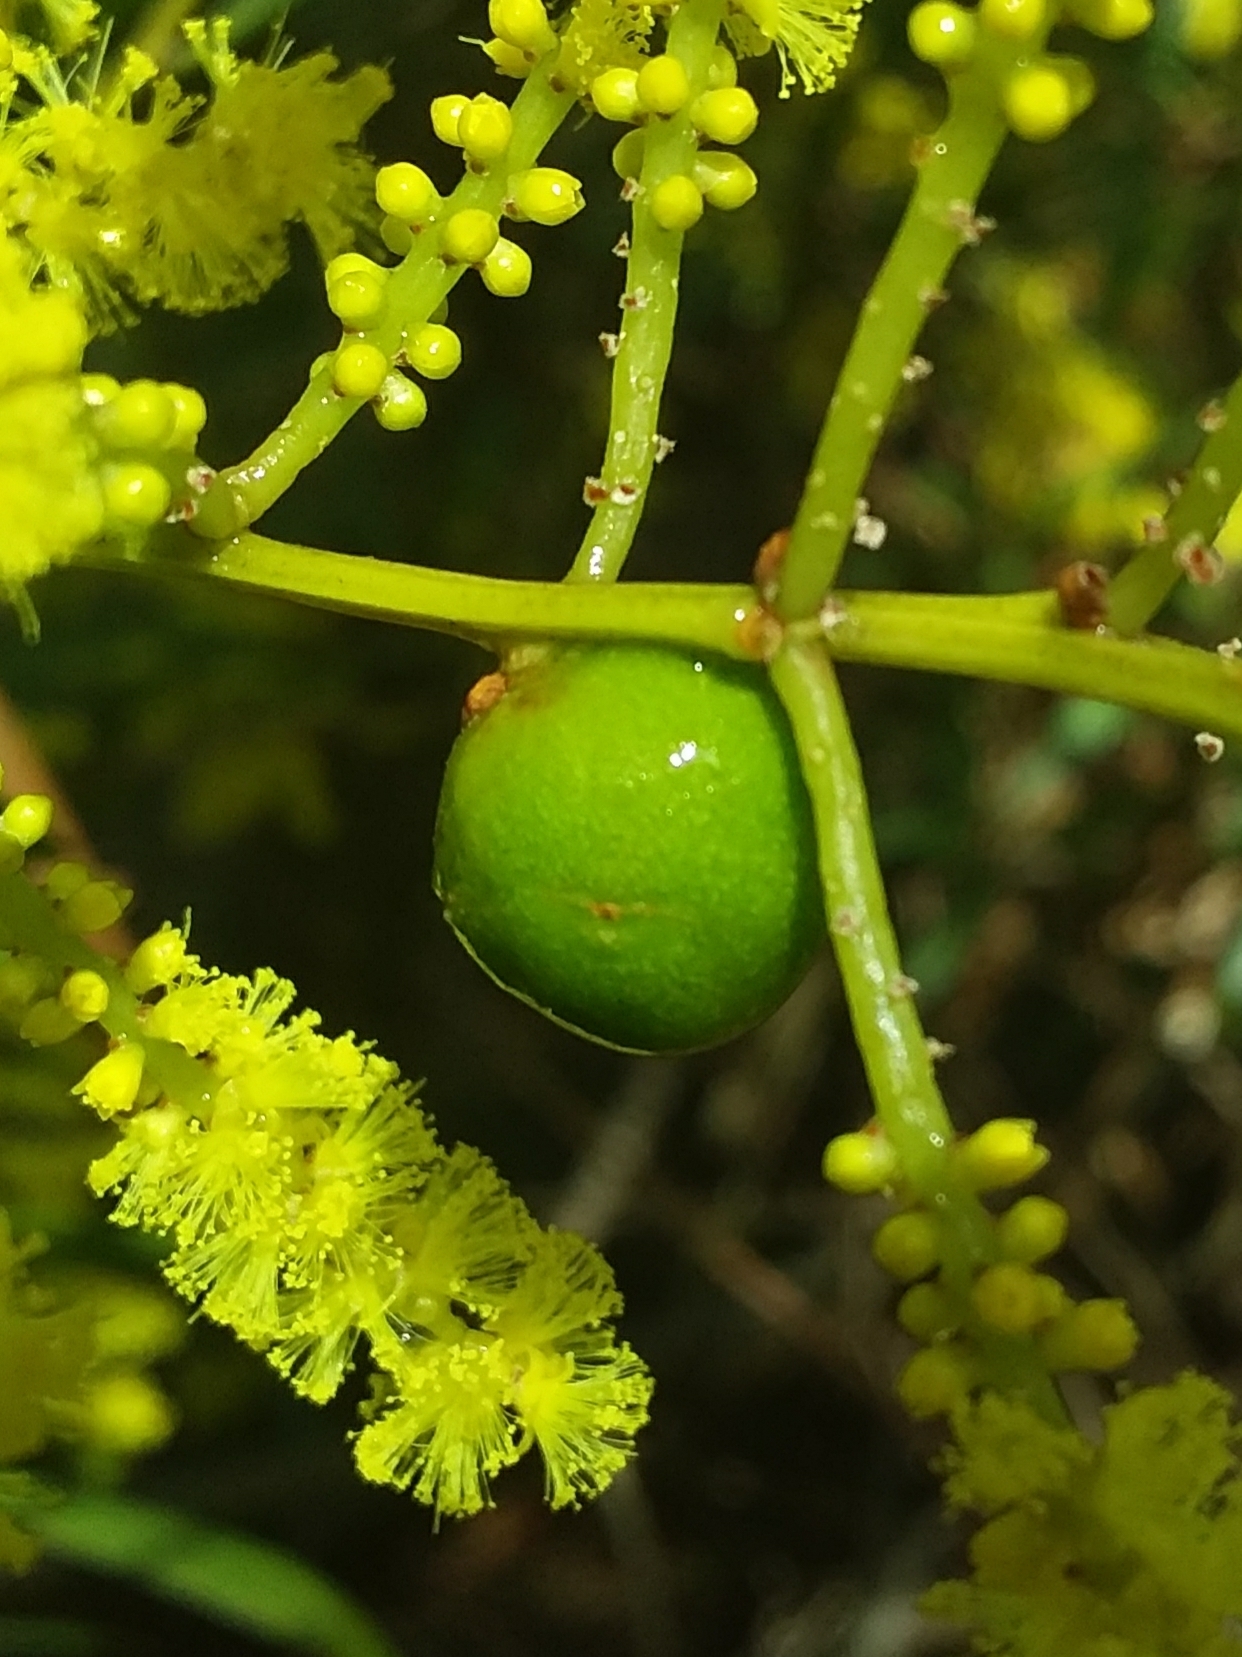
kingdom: Animalia
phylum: Arthropoda
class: Insecta
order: Hymenoptera
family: Pteromalidae
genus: Trichilogaster
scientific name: Trichilogaster acaciaelongifoliae
